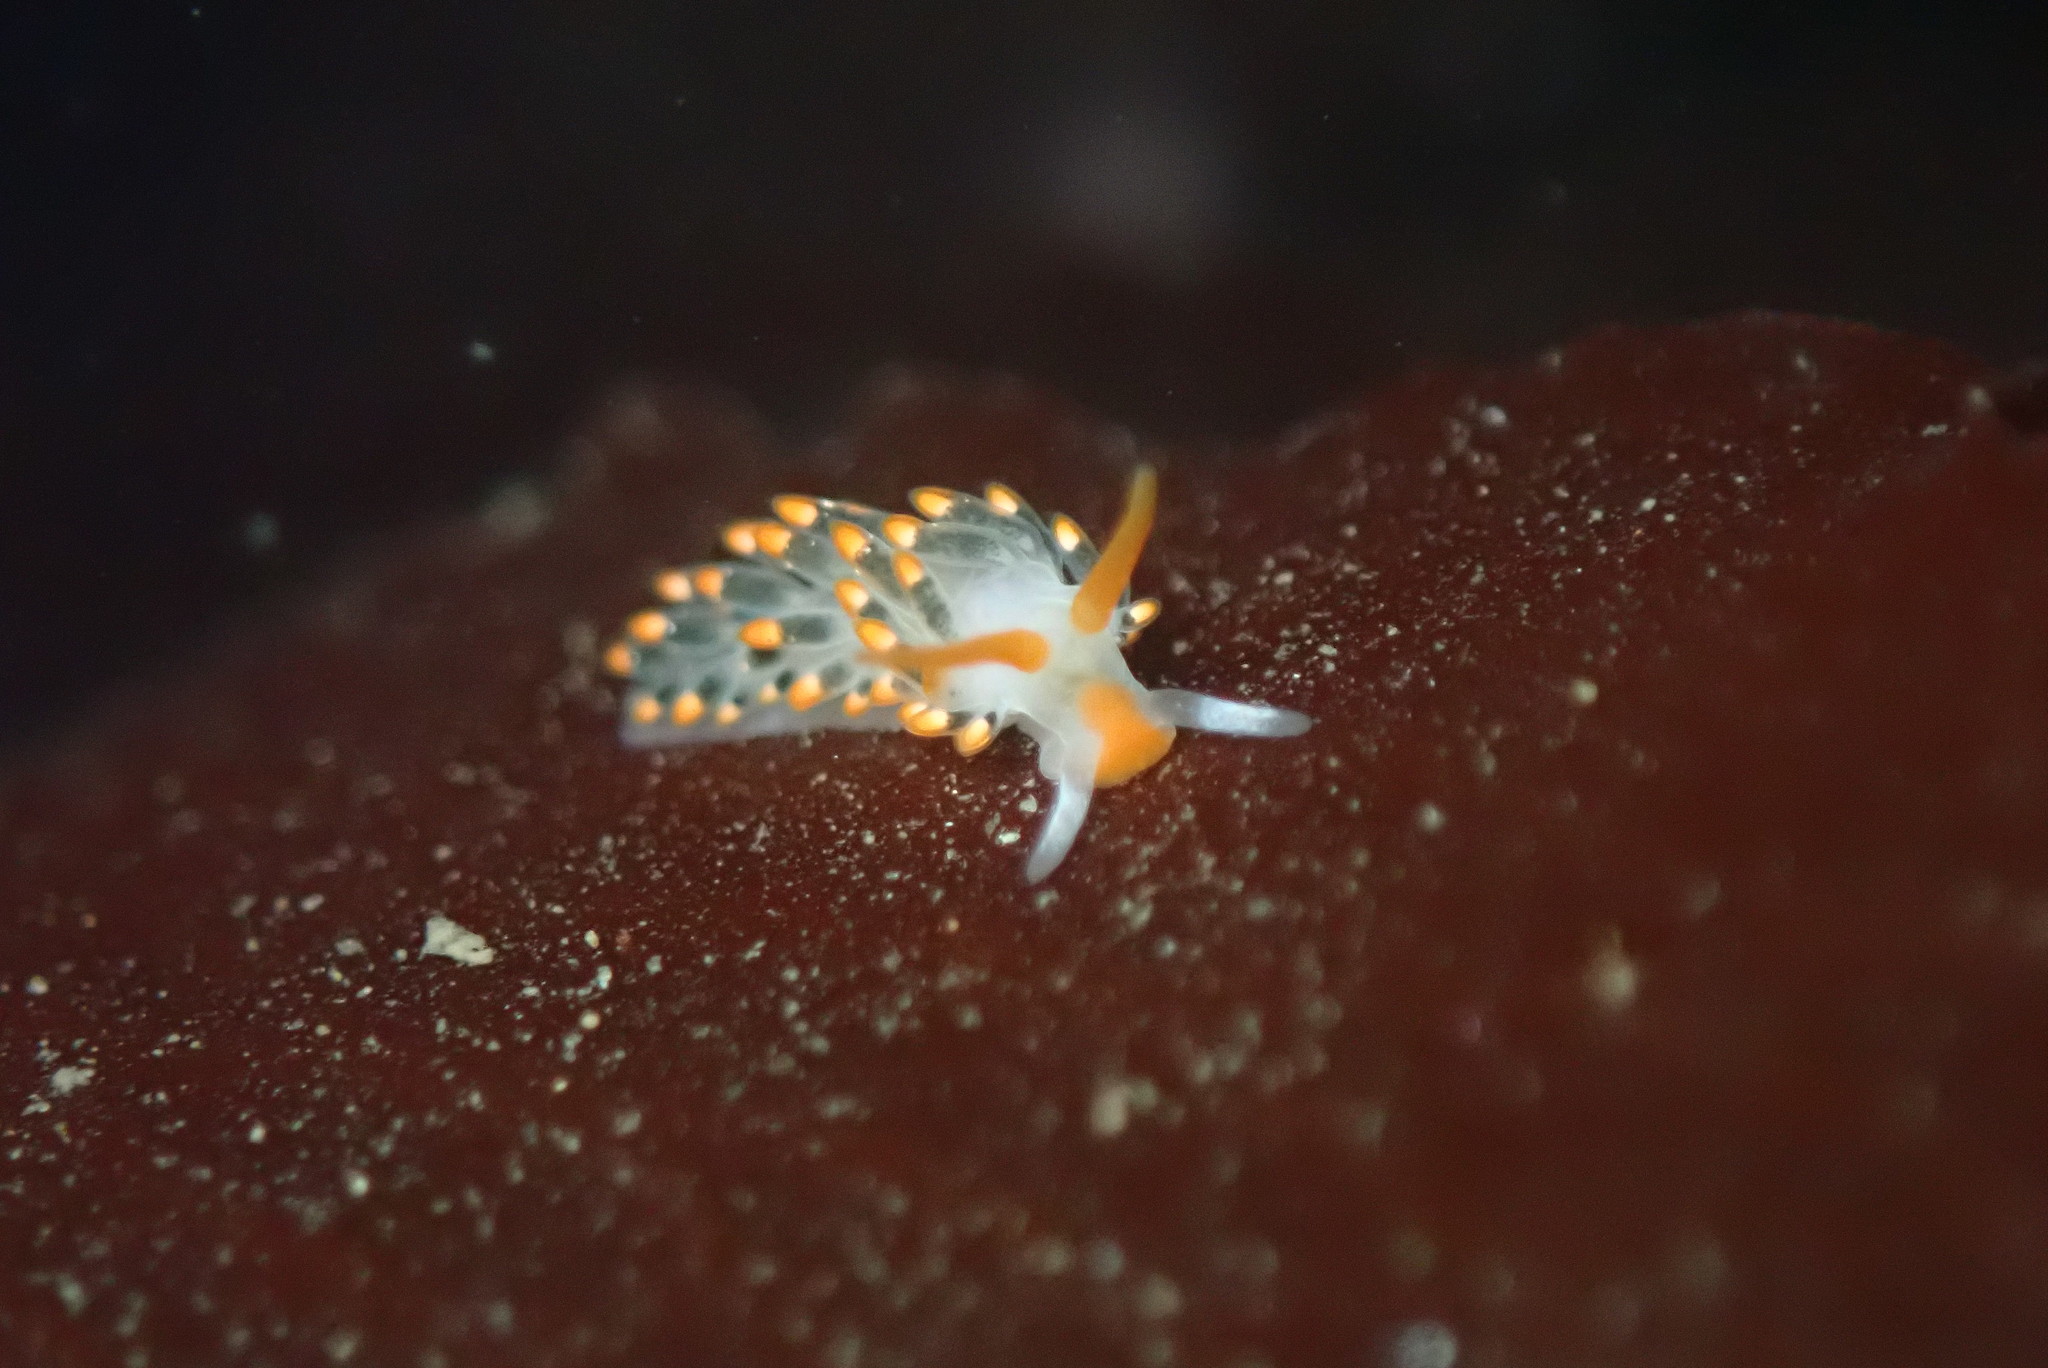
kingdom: Animalia
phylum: Mollusca
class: Gastropoda
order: Nudibranchia
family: Trinchesiidae
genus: Diaphoreolis
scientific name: Diaphoreolis lagunae
